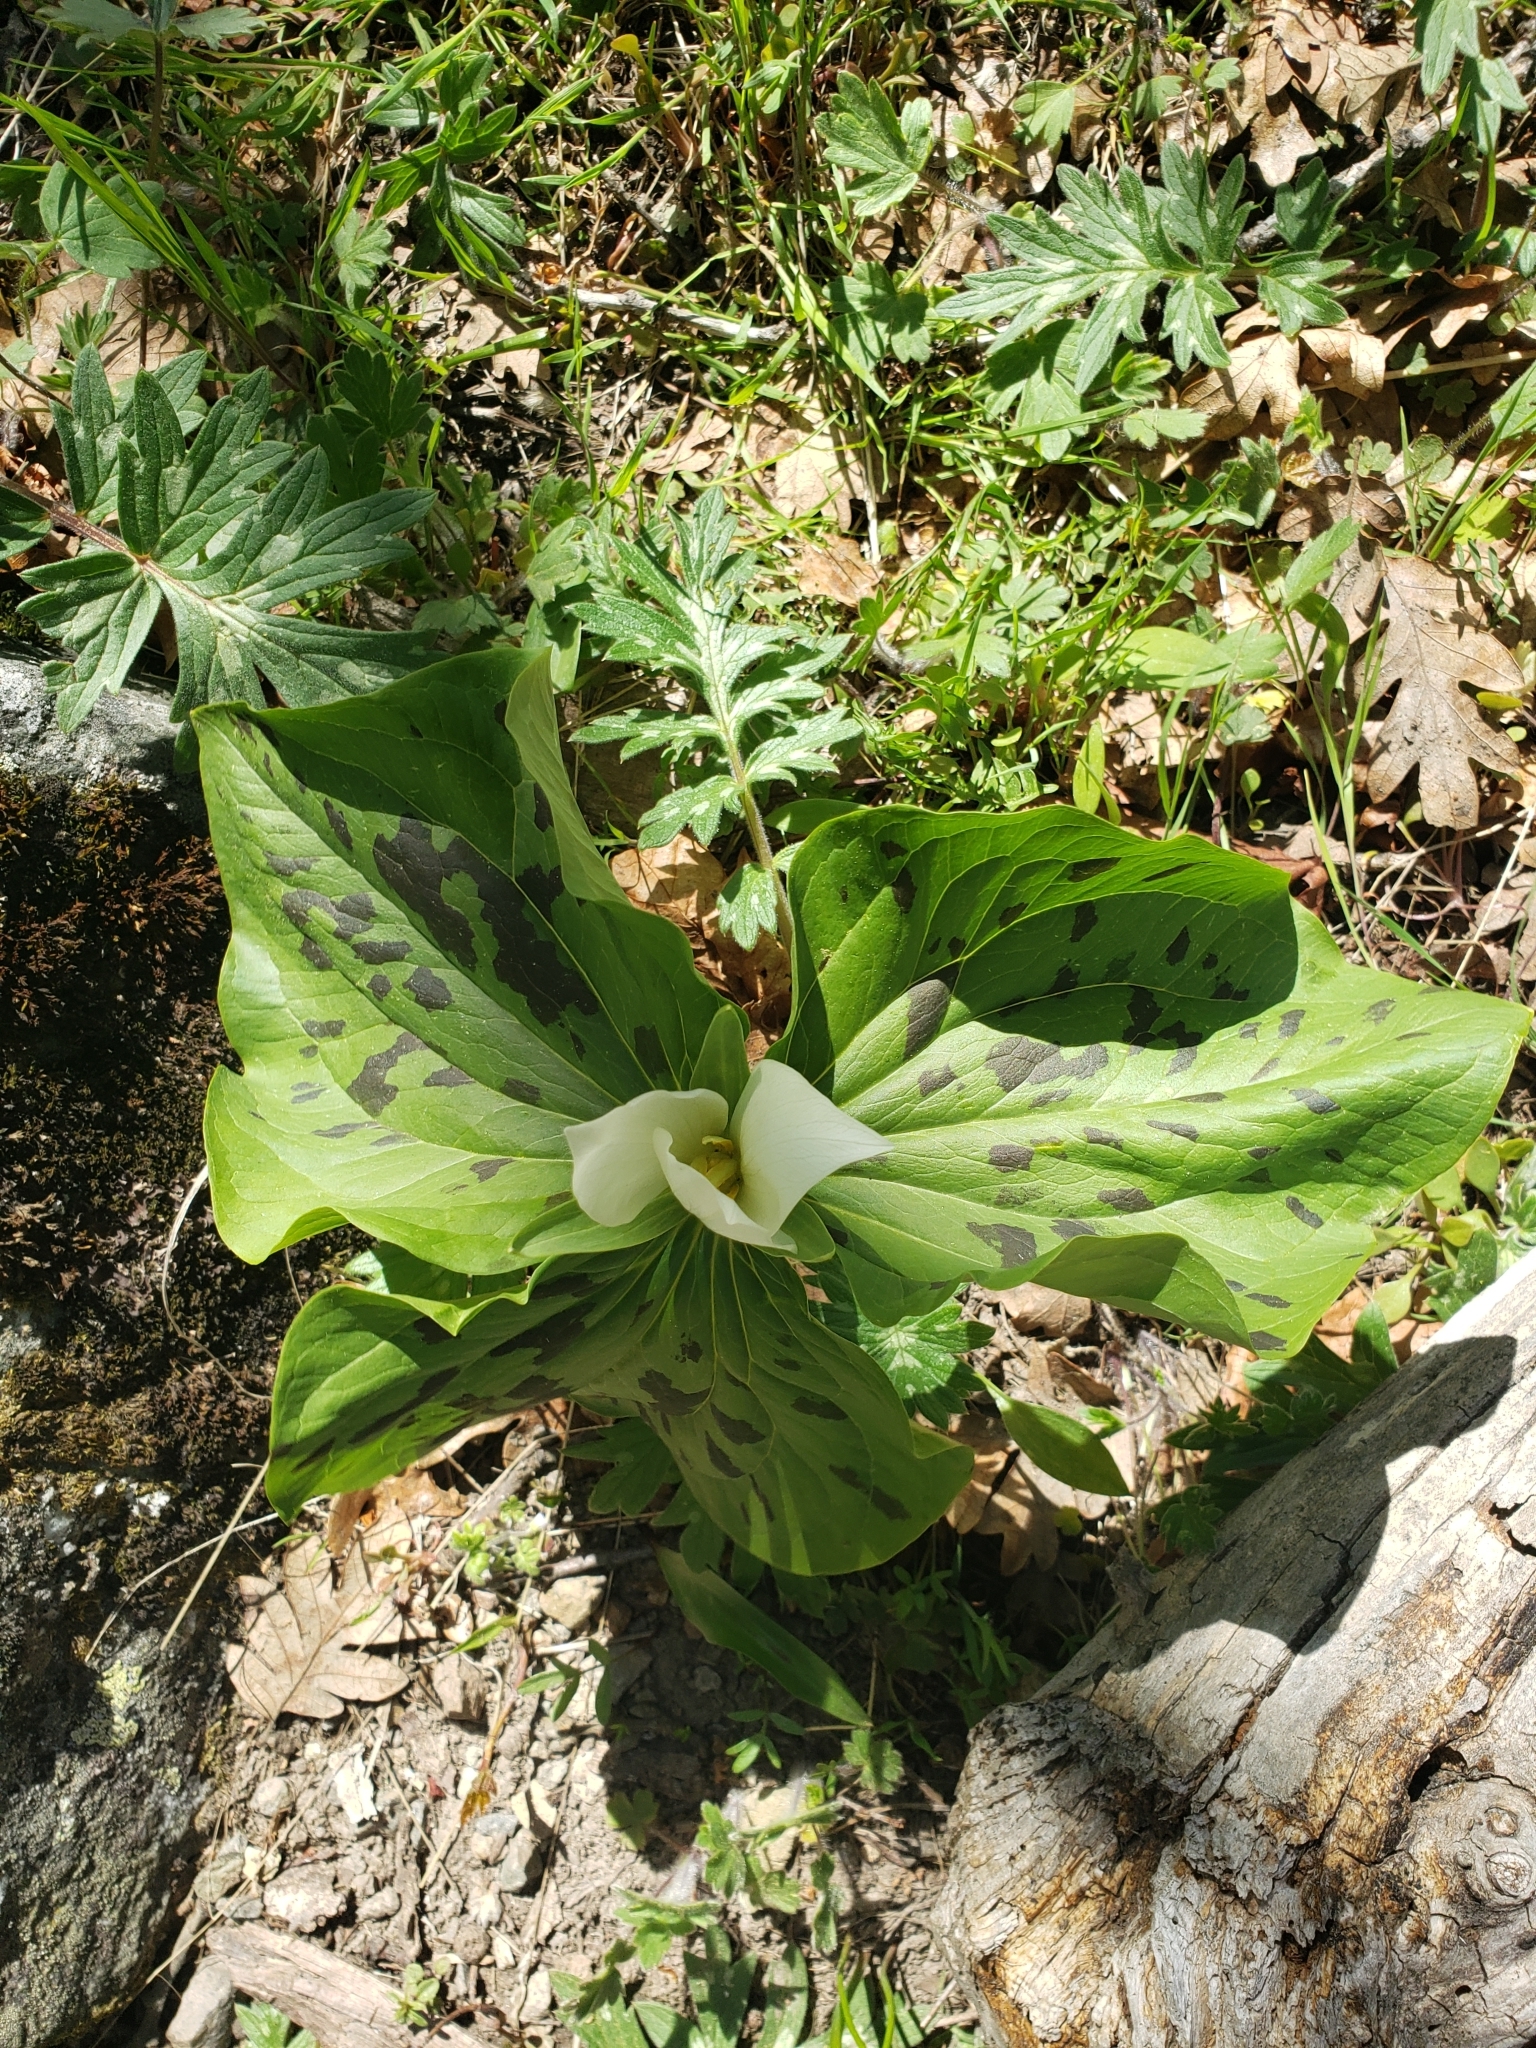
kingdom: Plantae
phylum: Tracheophyta
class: Liliopsida
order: Liliales
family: Melanthiaceae
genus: Trillium
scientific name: Trillium albidum
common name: Freeman's trillium
